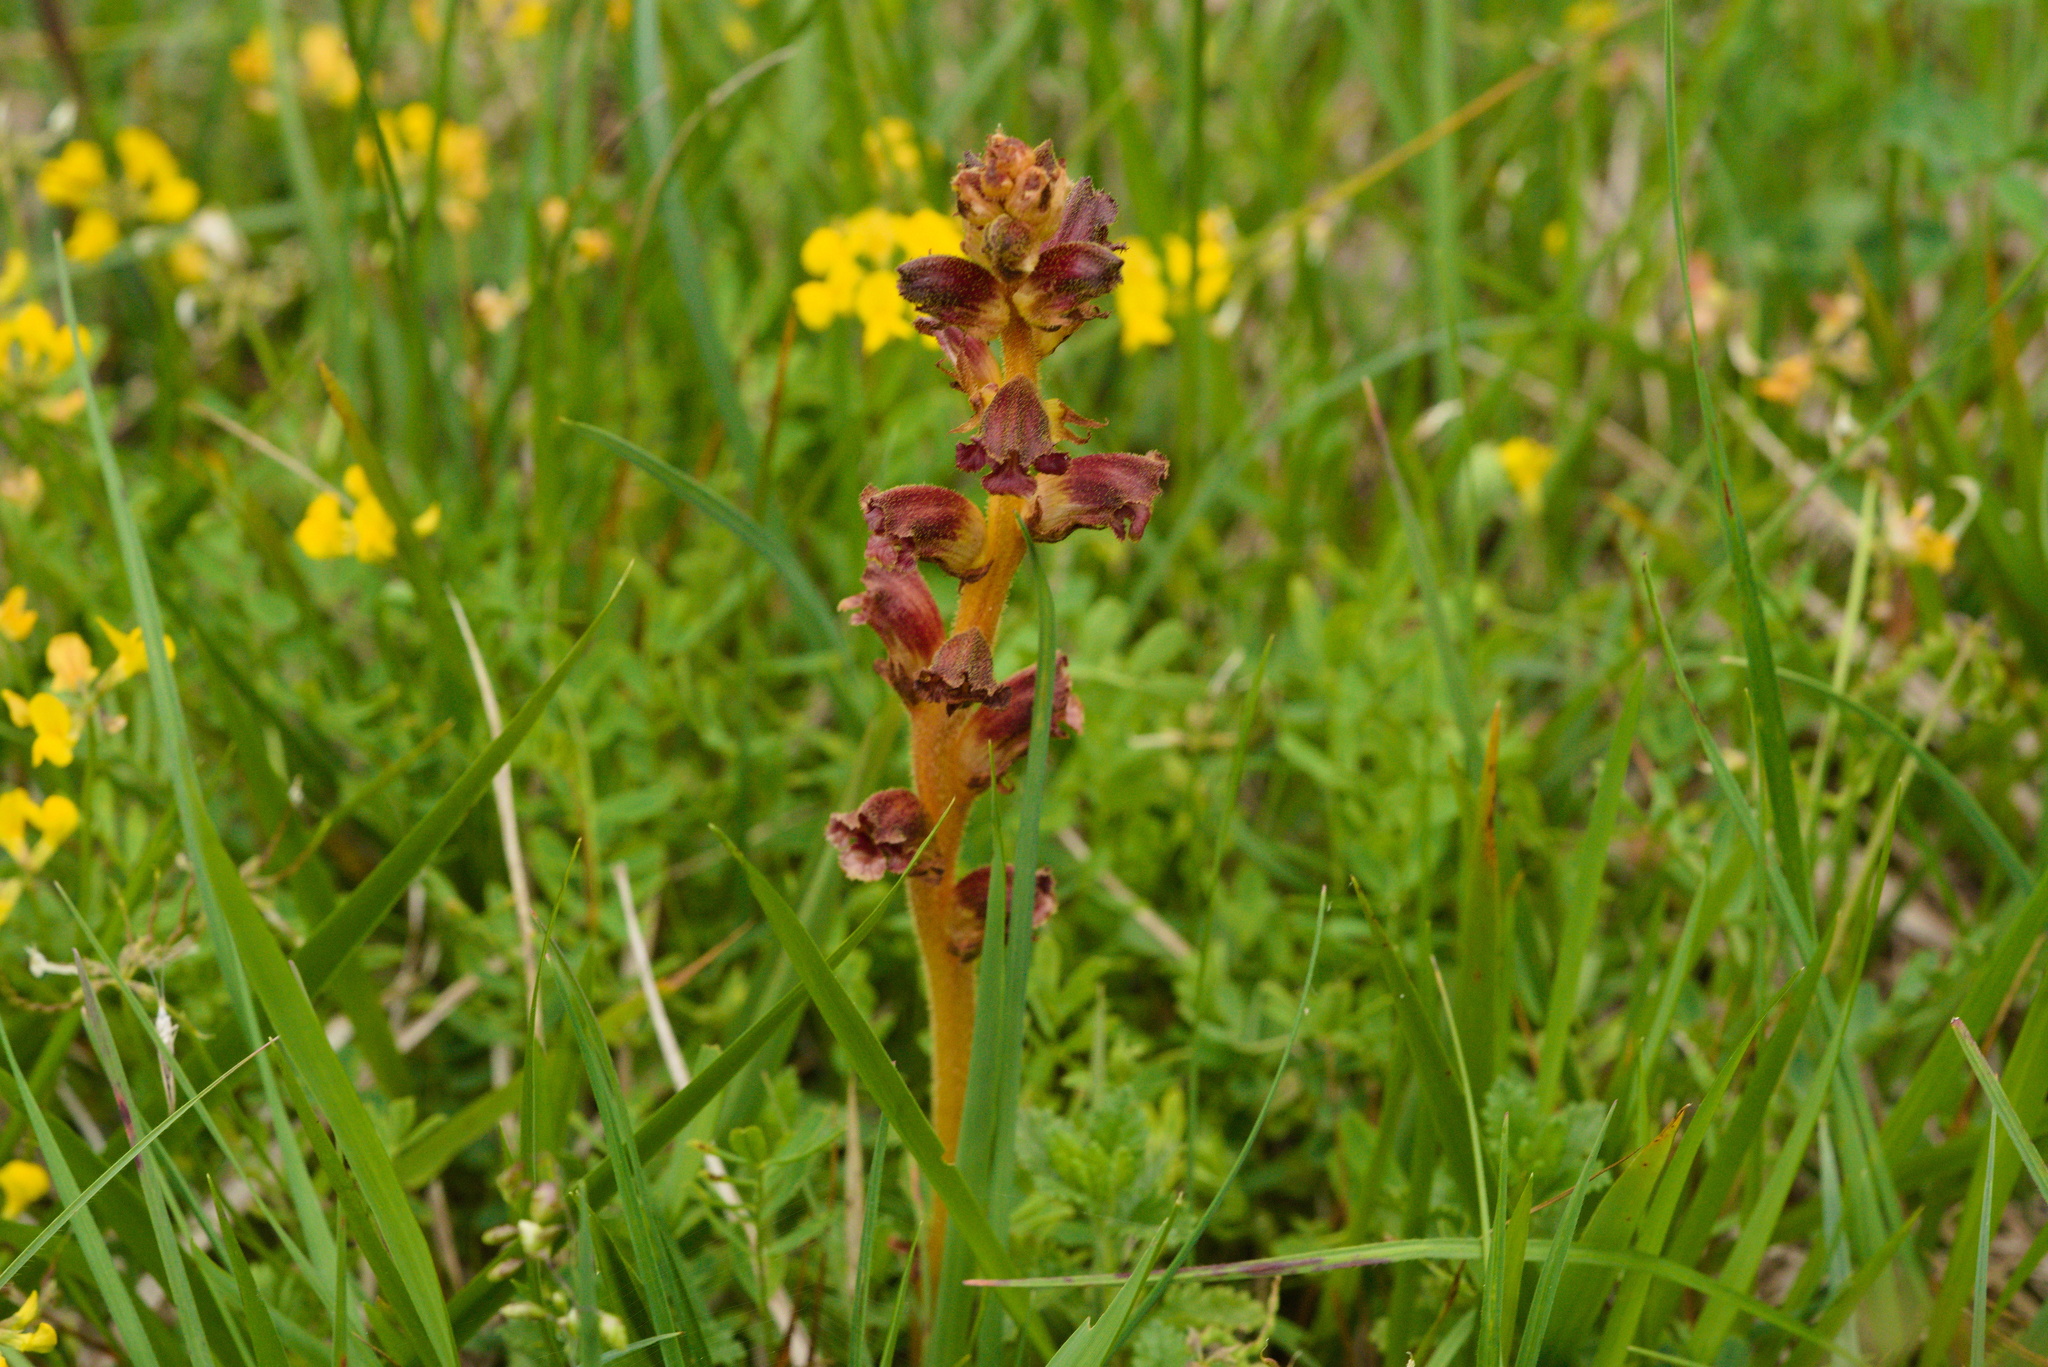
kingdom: Plantae
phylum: Tracheophyta
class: Magnoliopsida
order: Lamiales
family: Orobanchaceae
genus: Orobanche
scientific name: Orobanche gracilis
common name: Slender broomrape
